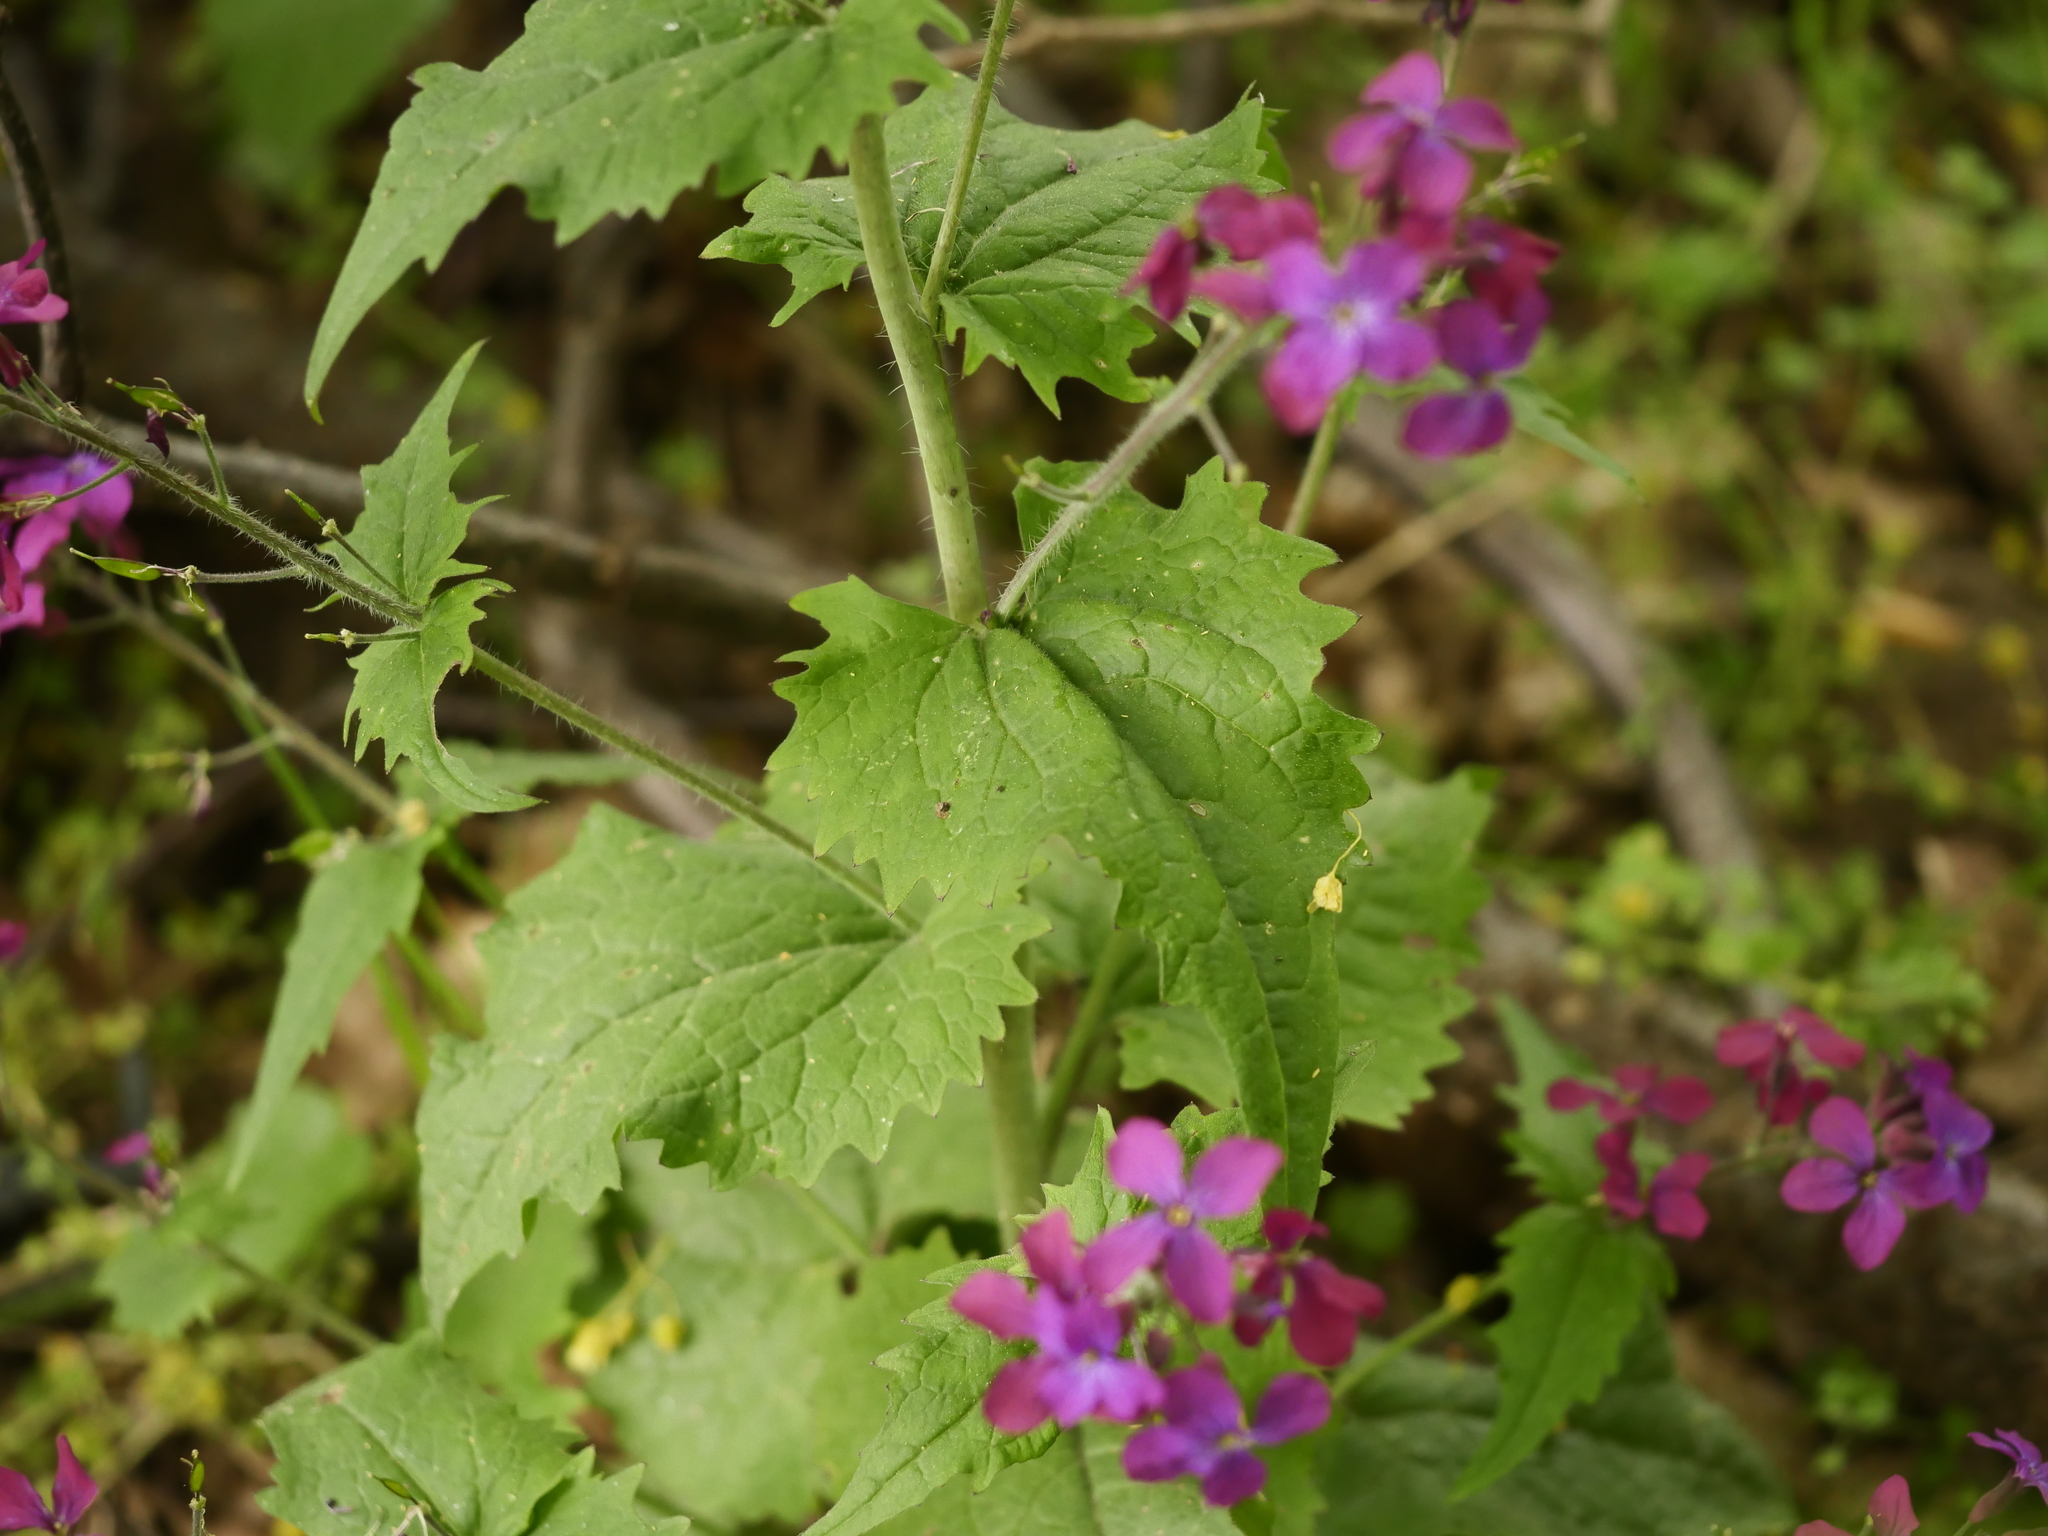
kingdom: Plantae
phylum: Tracheophyta
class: Magnoliopsida
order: Brassicales
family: Brassicaceae
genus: Lunaria
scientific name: Lunaria annua
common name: Honesty
